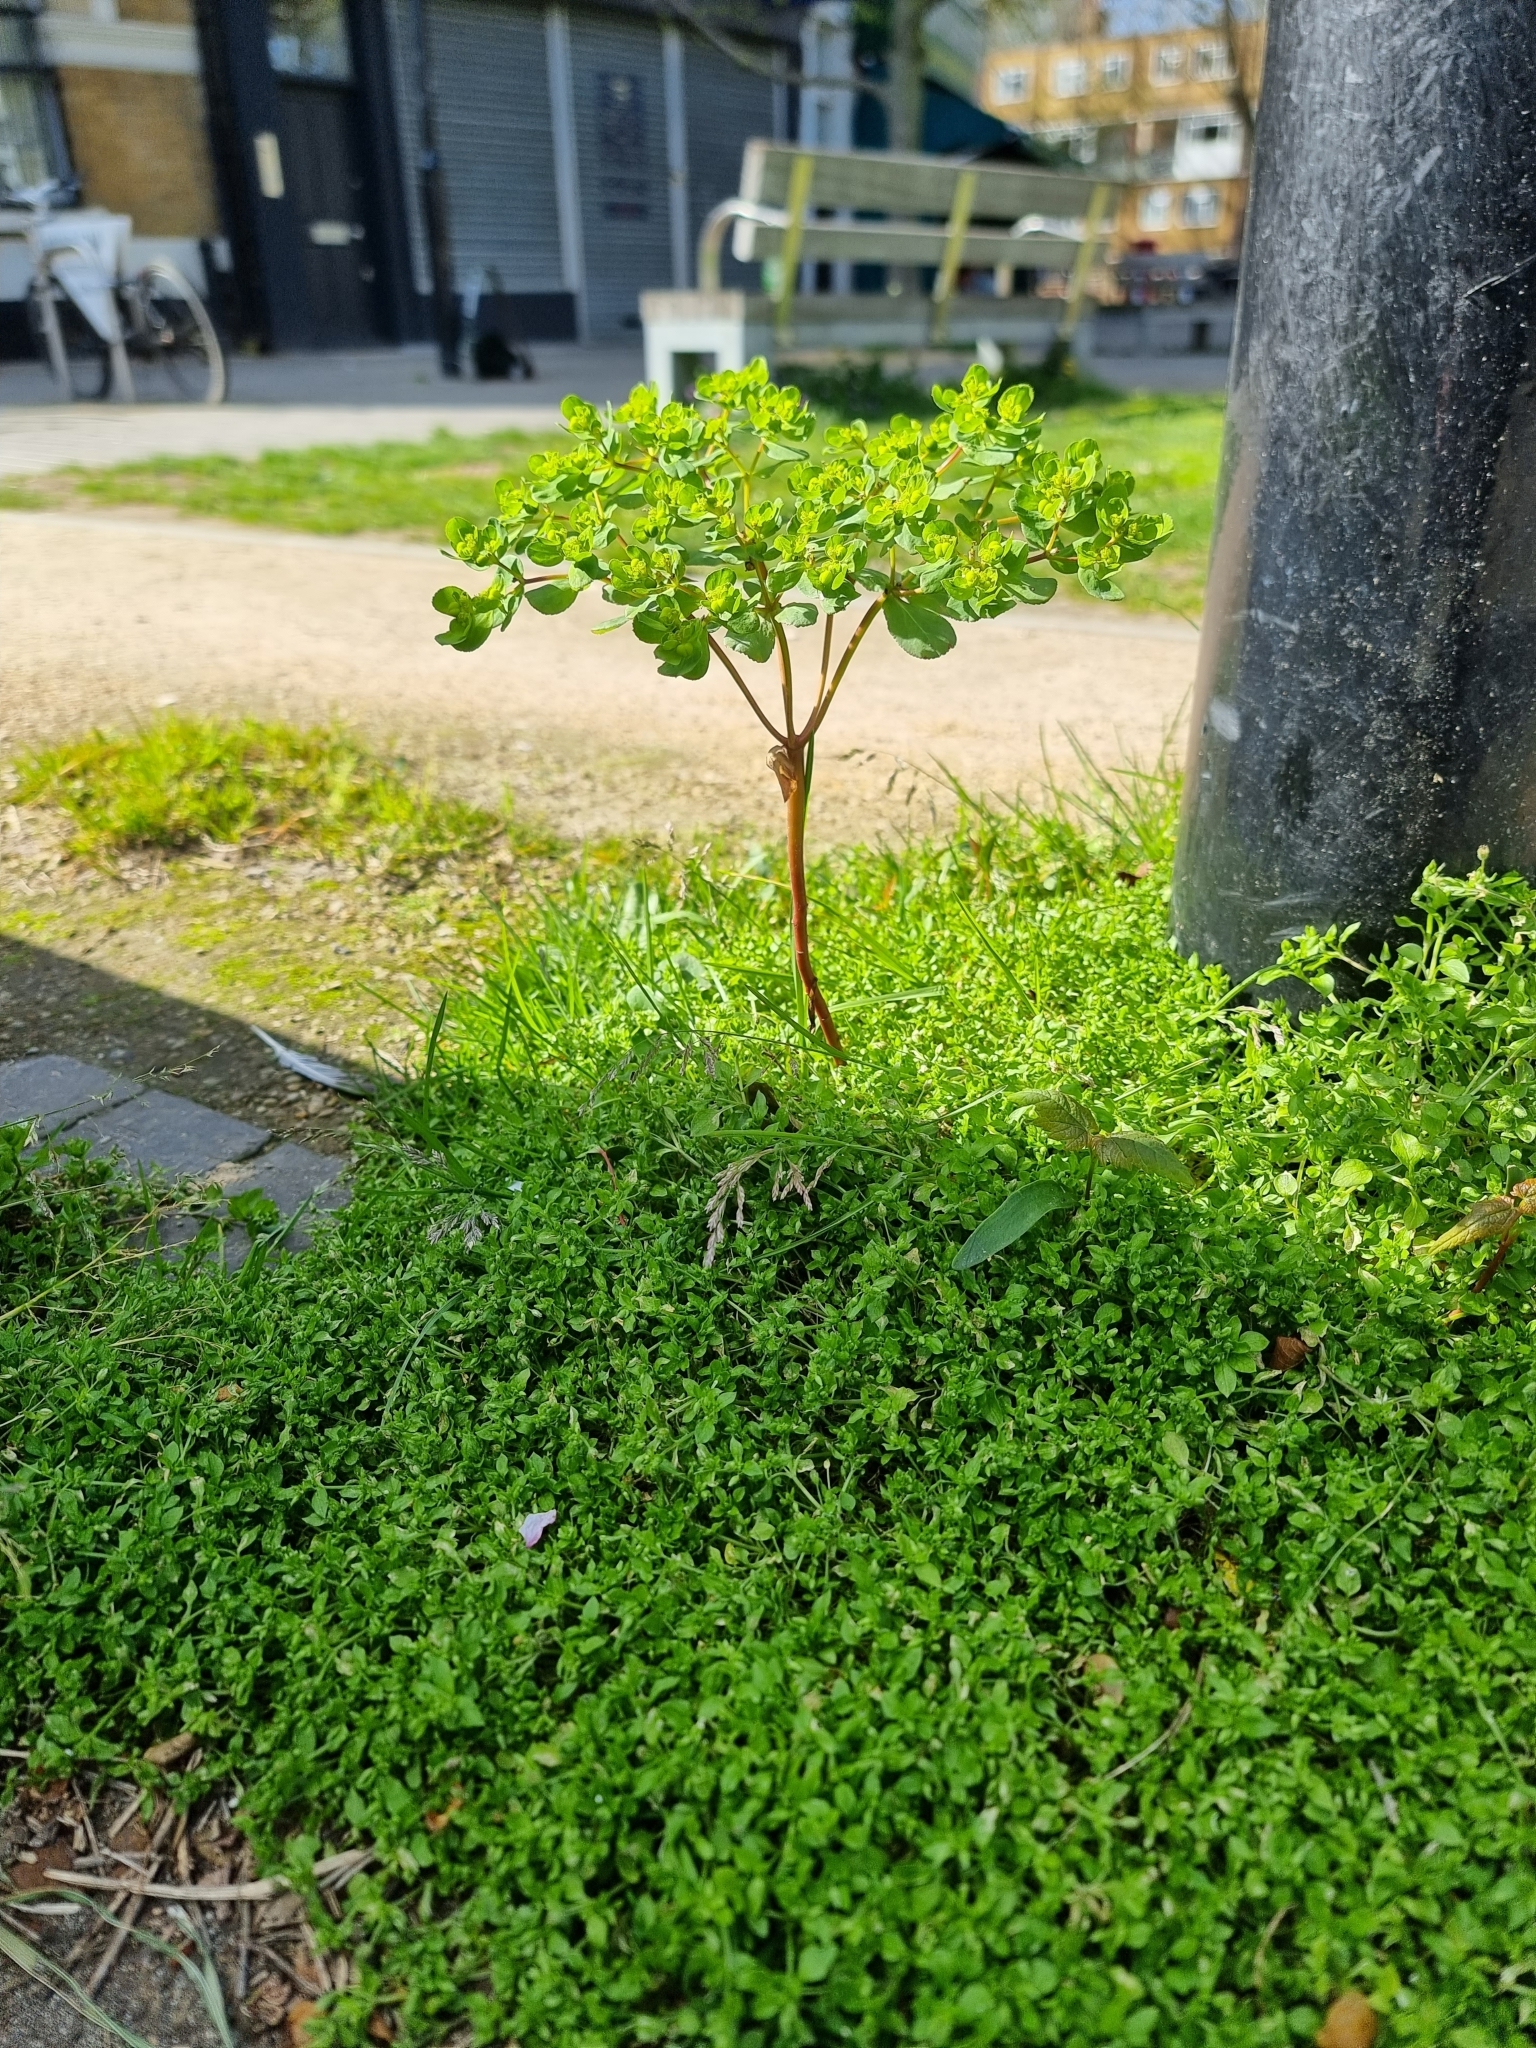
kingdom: Plantae
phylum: Tracheophyta
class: Magnoliopsida
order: Malpighiales
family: Euphorbiaceae
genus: Euphorbia
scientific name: Euphorbia helioscopia
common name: Sun spurge
